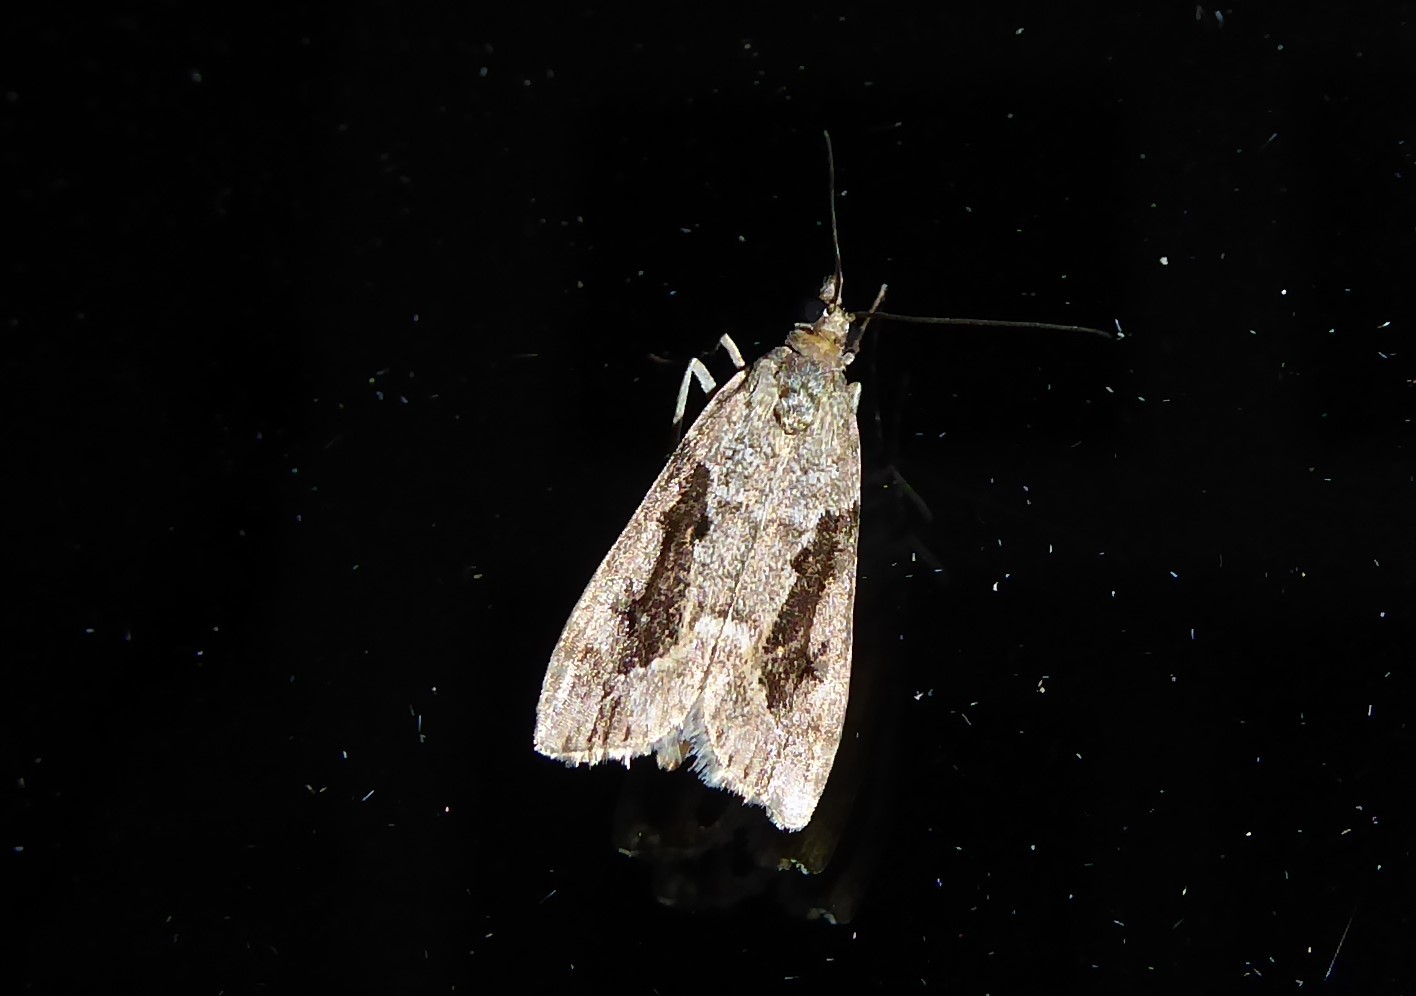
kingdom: Animalia
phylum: Arthropoda
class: Insecta
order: Lepidoptera
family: Crambidae
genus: Eudonia
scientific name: Eudonia submarginalis
